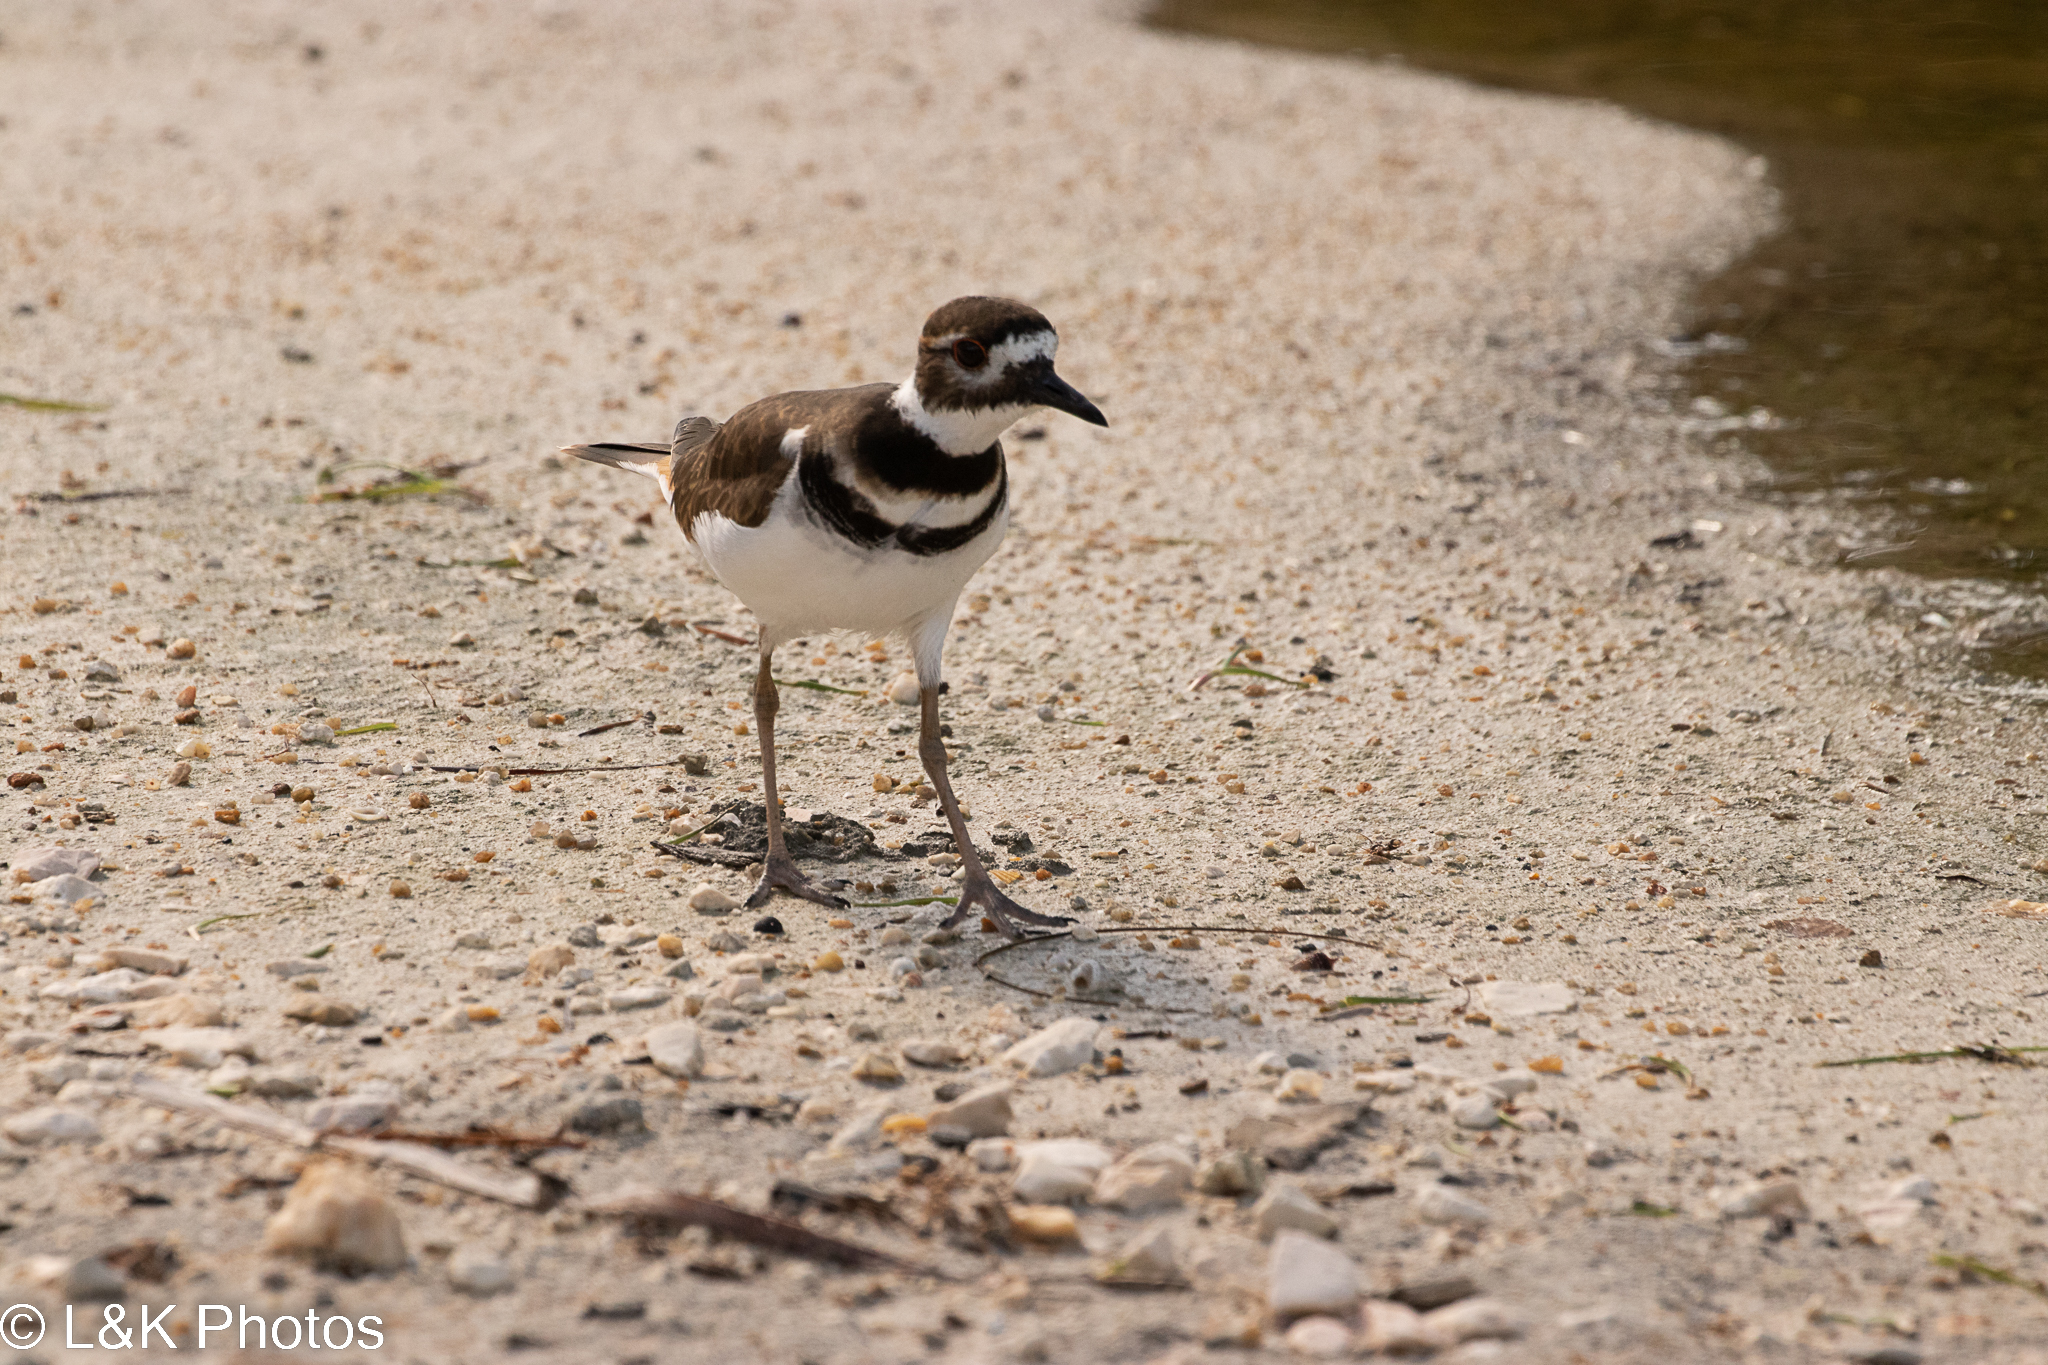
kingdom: Animalia
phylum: Chordata
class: Aves
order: Charadriiformes
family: Charadriidae
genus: Charadrius
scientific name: Charadrius vociferus
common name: Killdeer
